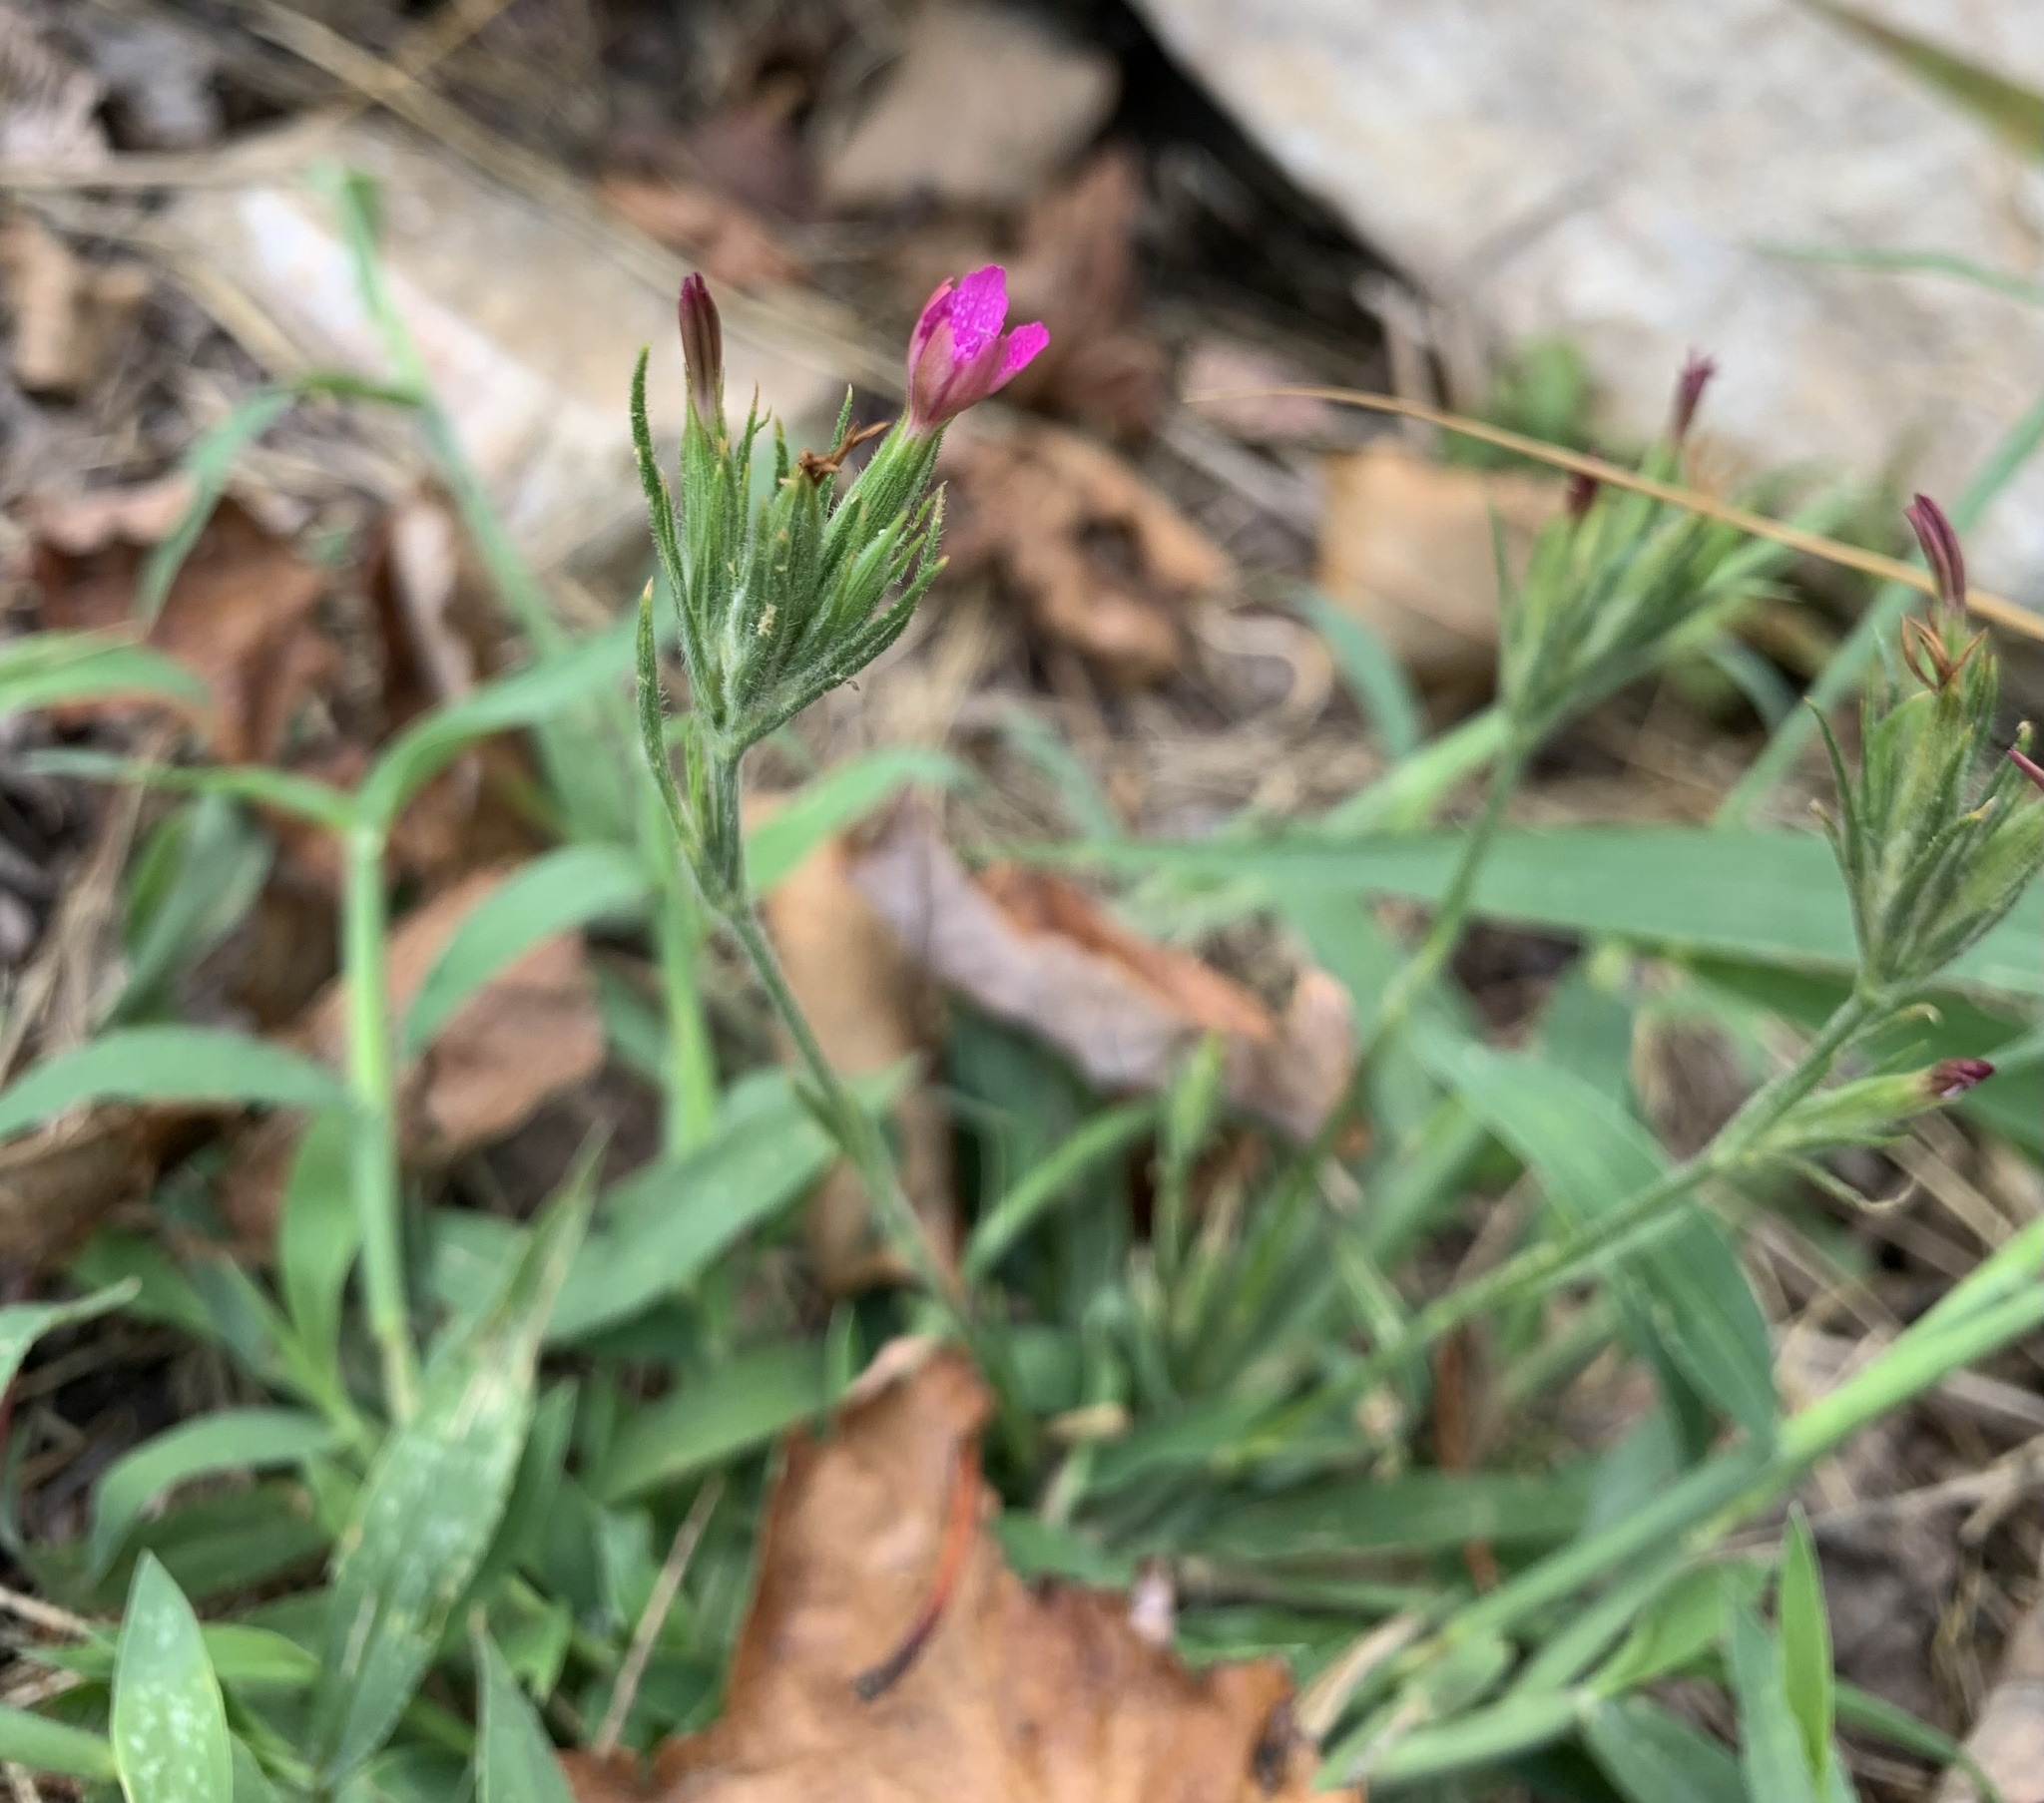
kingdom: Plantae
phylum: Tracheophyta
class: Magnoliopsida
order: Caryophyllales
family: Caryophyllaceae
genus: Dianthus
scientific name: Dianthus armeria
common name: Deptford pink
